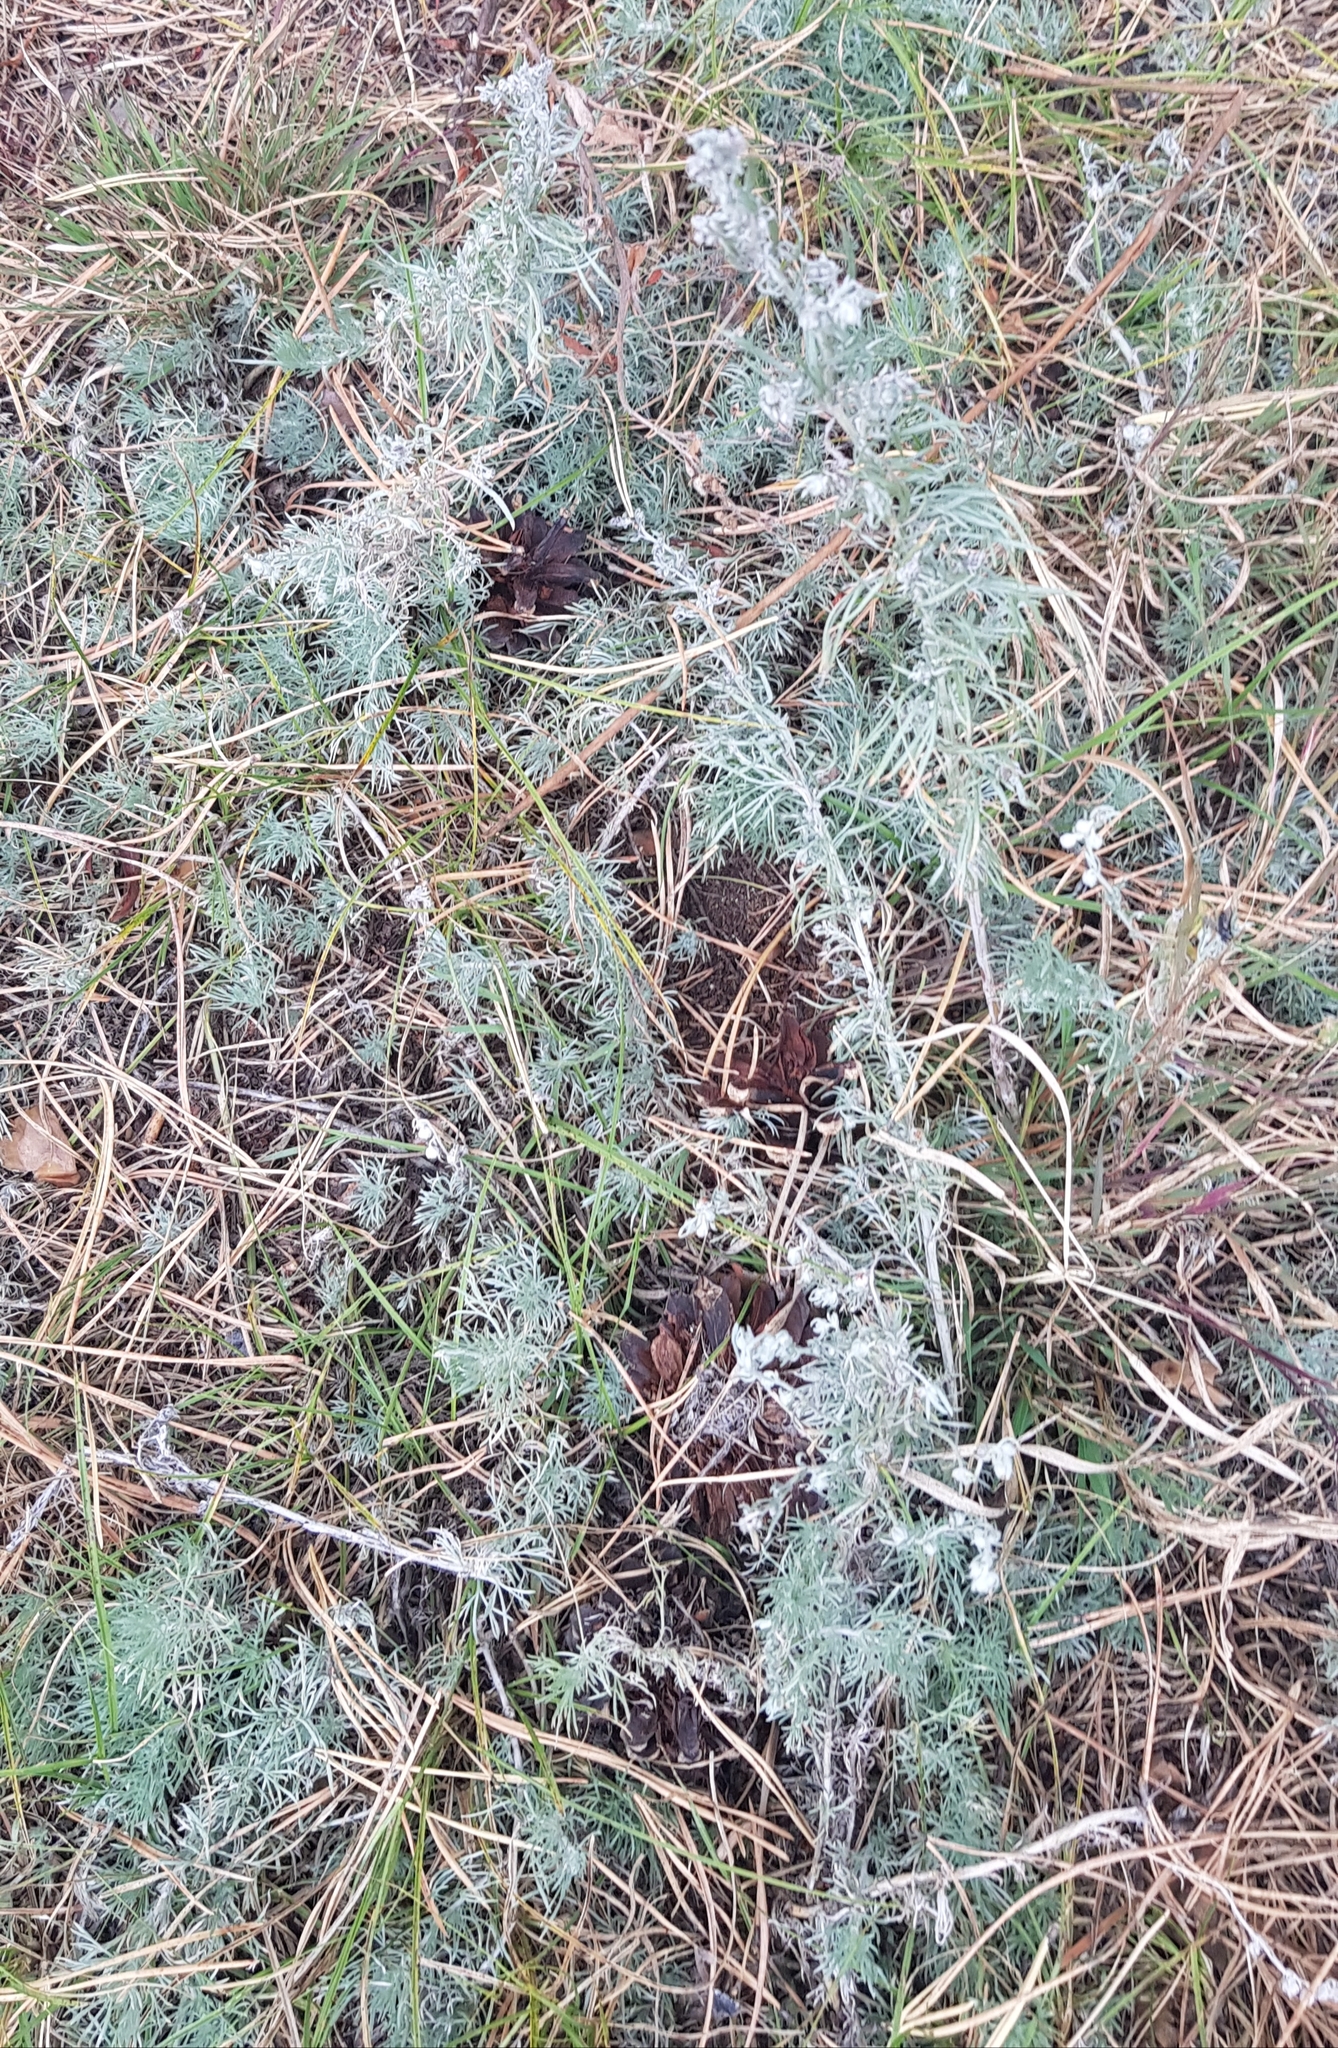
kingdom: Plantae
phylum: Tracheophyta
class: Magnoliopsida
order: Asterales
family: Asteraceae
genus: Artemisia
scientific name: Artemisia frigida
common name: Prairie sagewort
